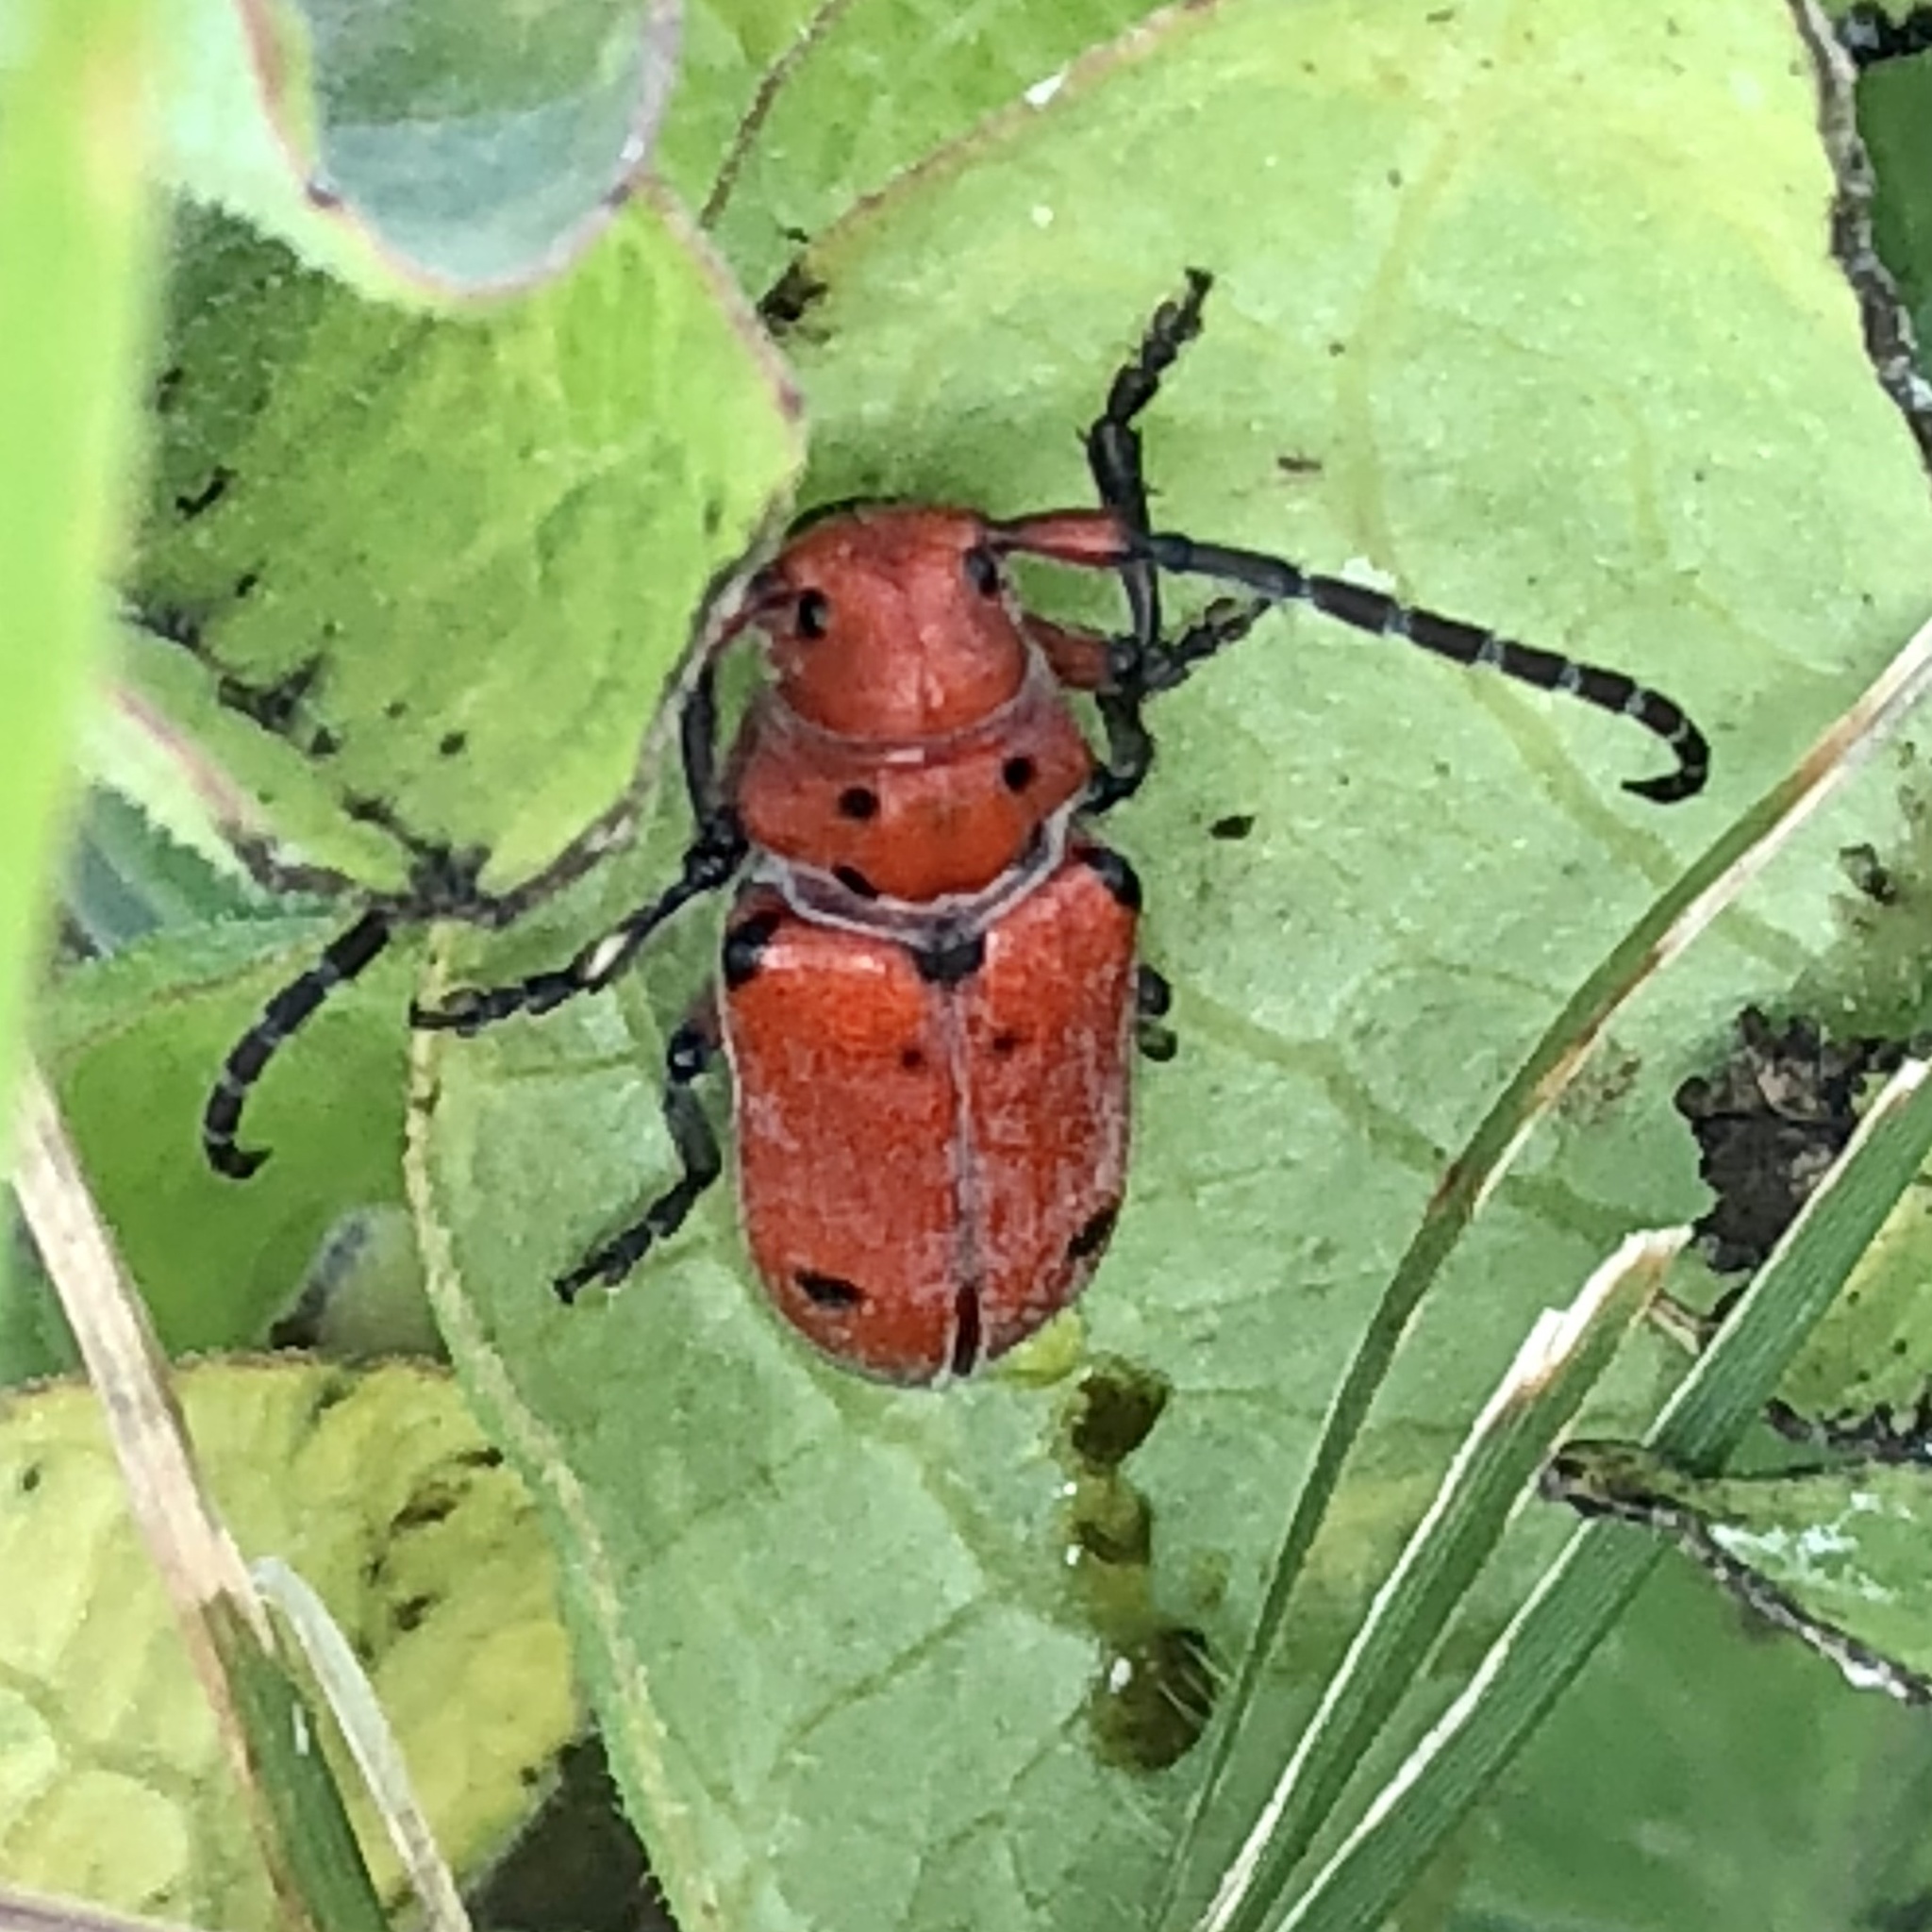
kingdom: Animalia
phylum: Arthropoda
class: Insecta
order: Coleoptera
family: Cerambycidae
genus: Tetraopes
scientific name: Tetraopes texanus
